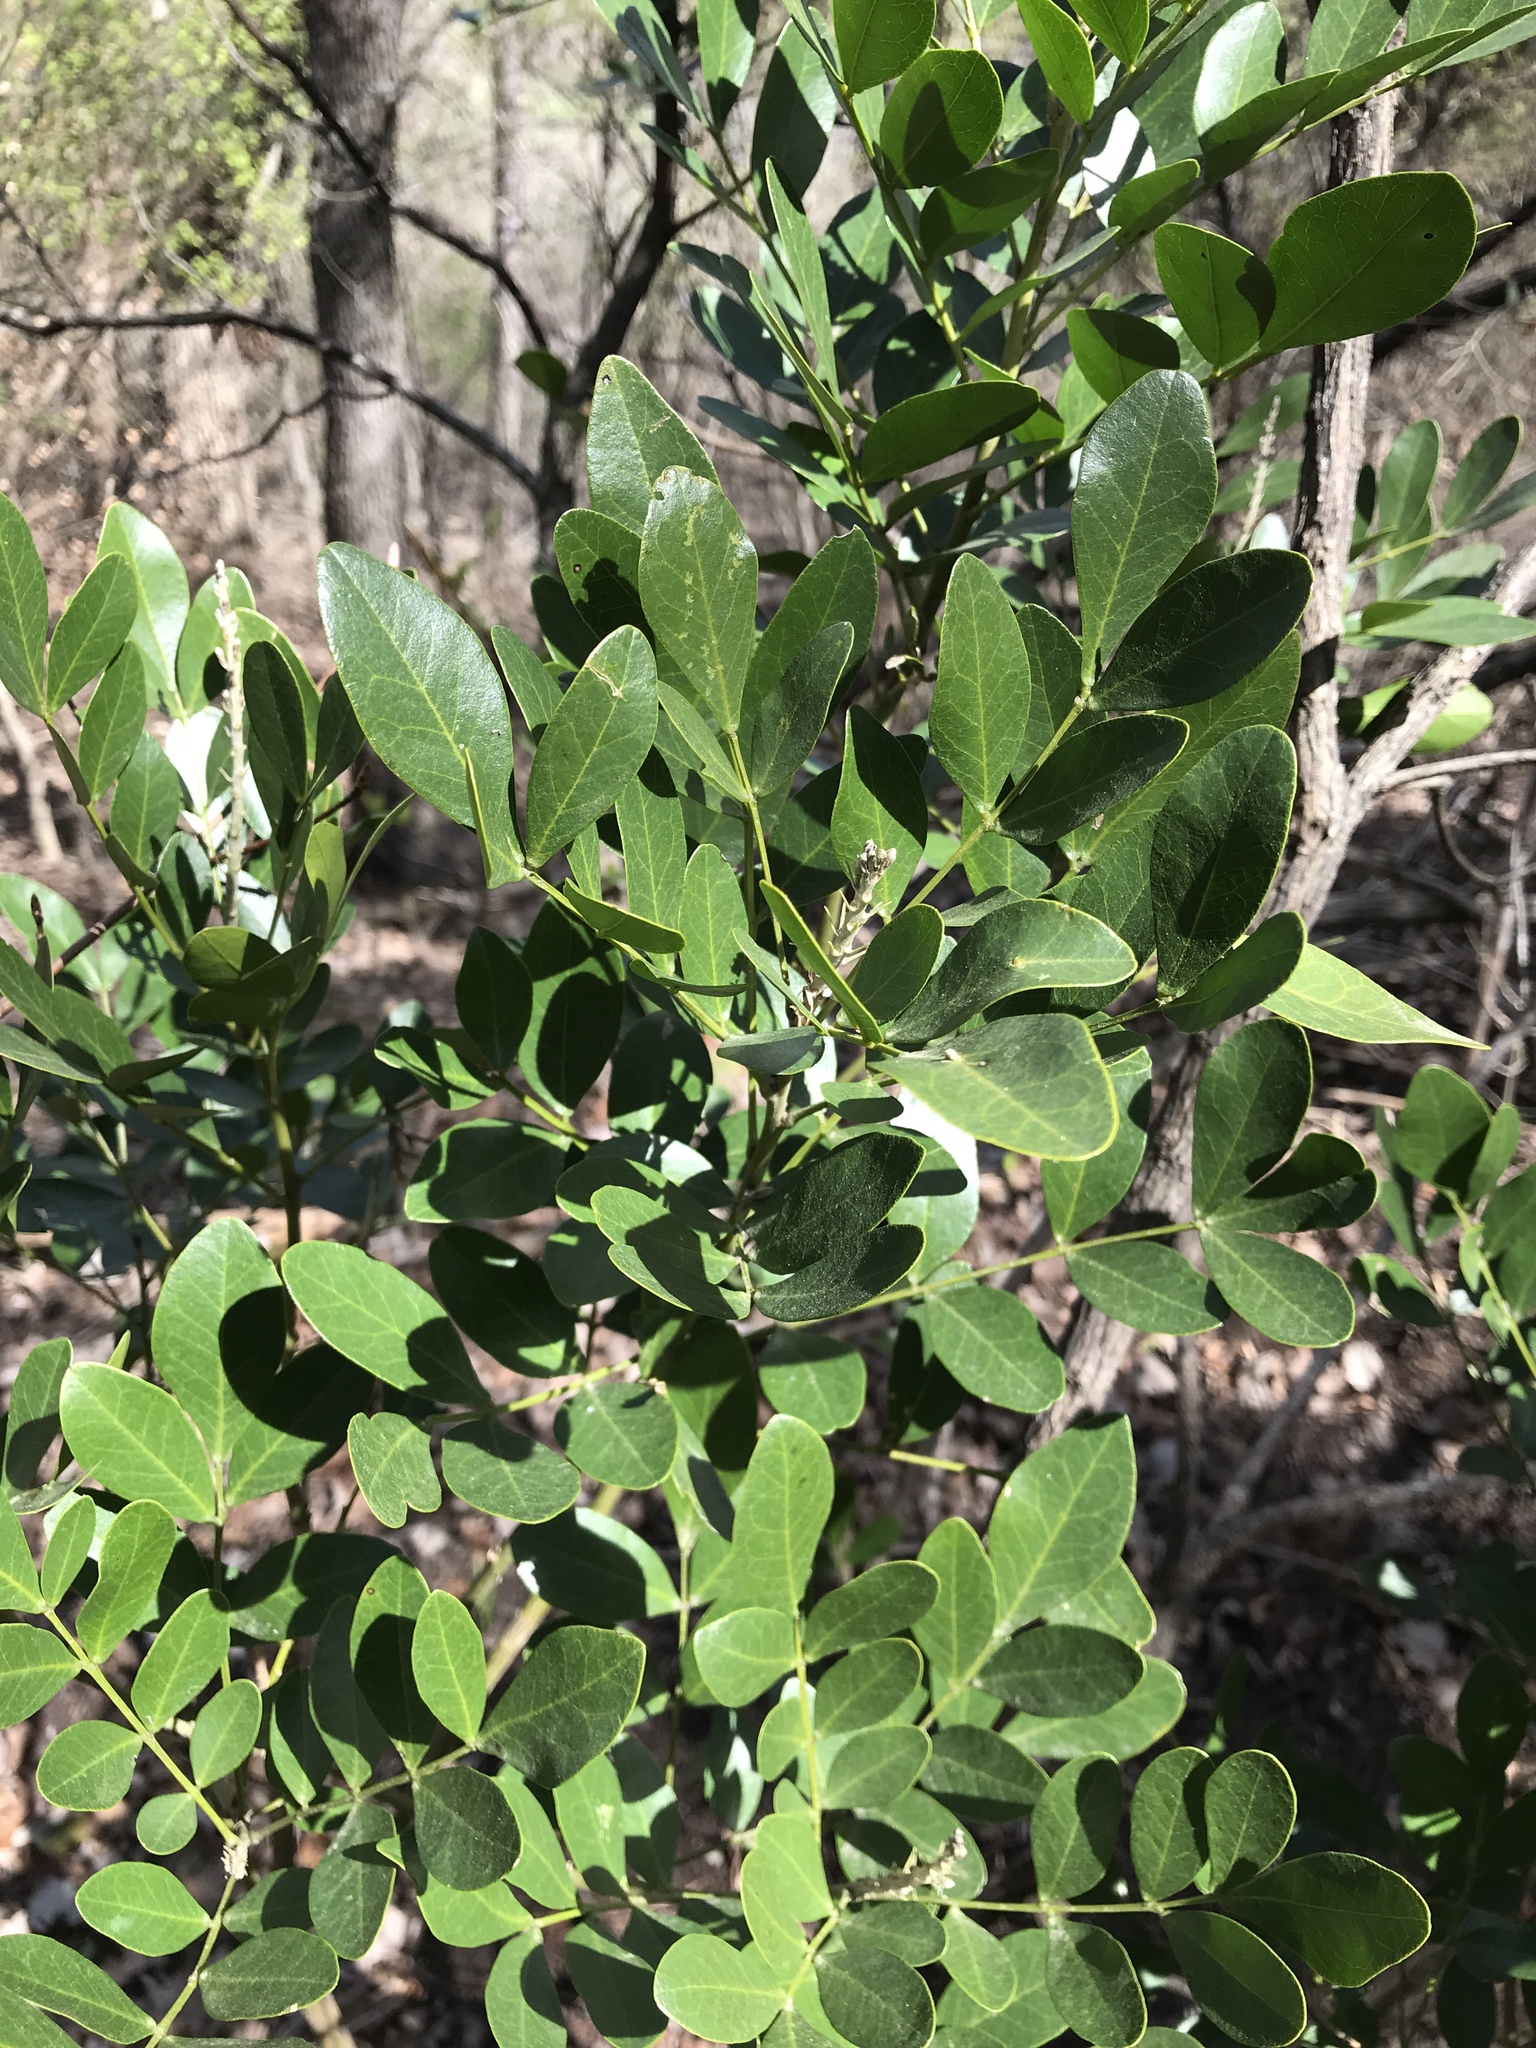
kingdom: Plantae
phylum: Tracheophyta
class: Magnoliopsida
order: Fabales
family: Fabaceae
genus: Dermatophyllum
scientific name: Dermatophyllum secundiflorum
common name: Texas-mountain-laurel
